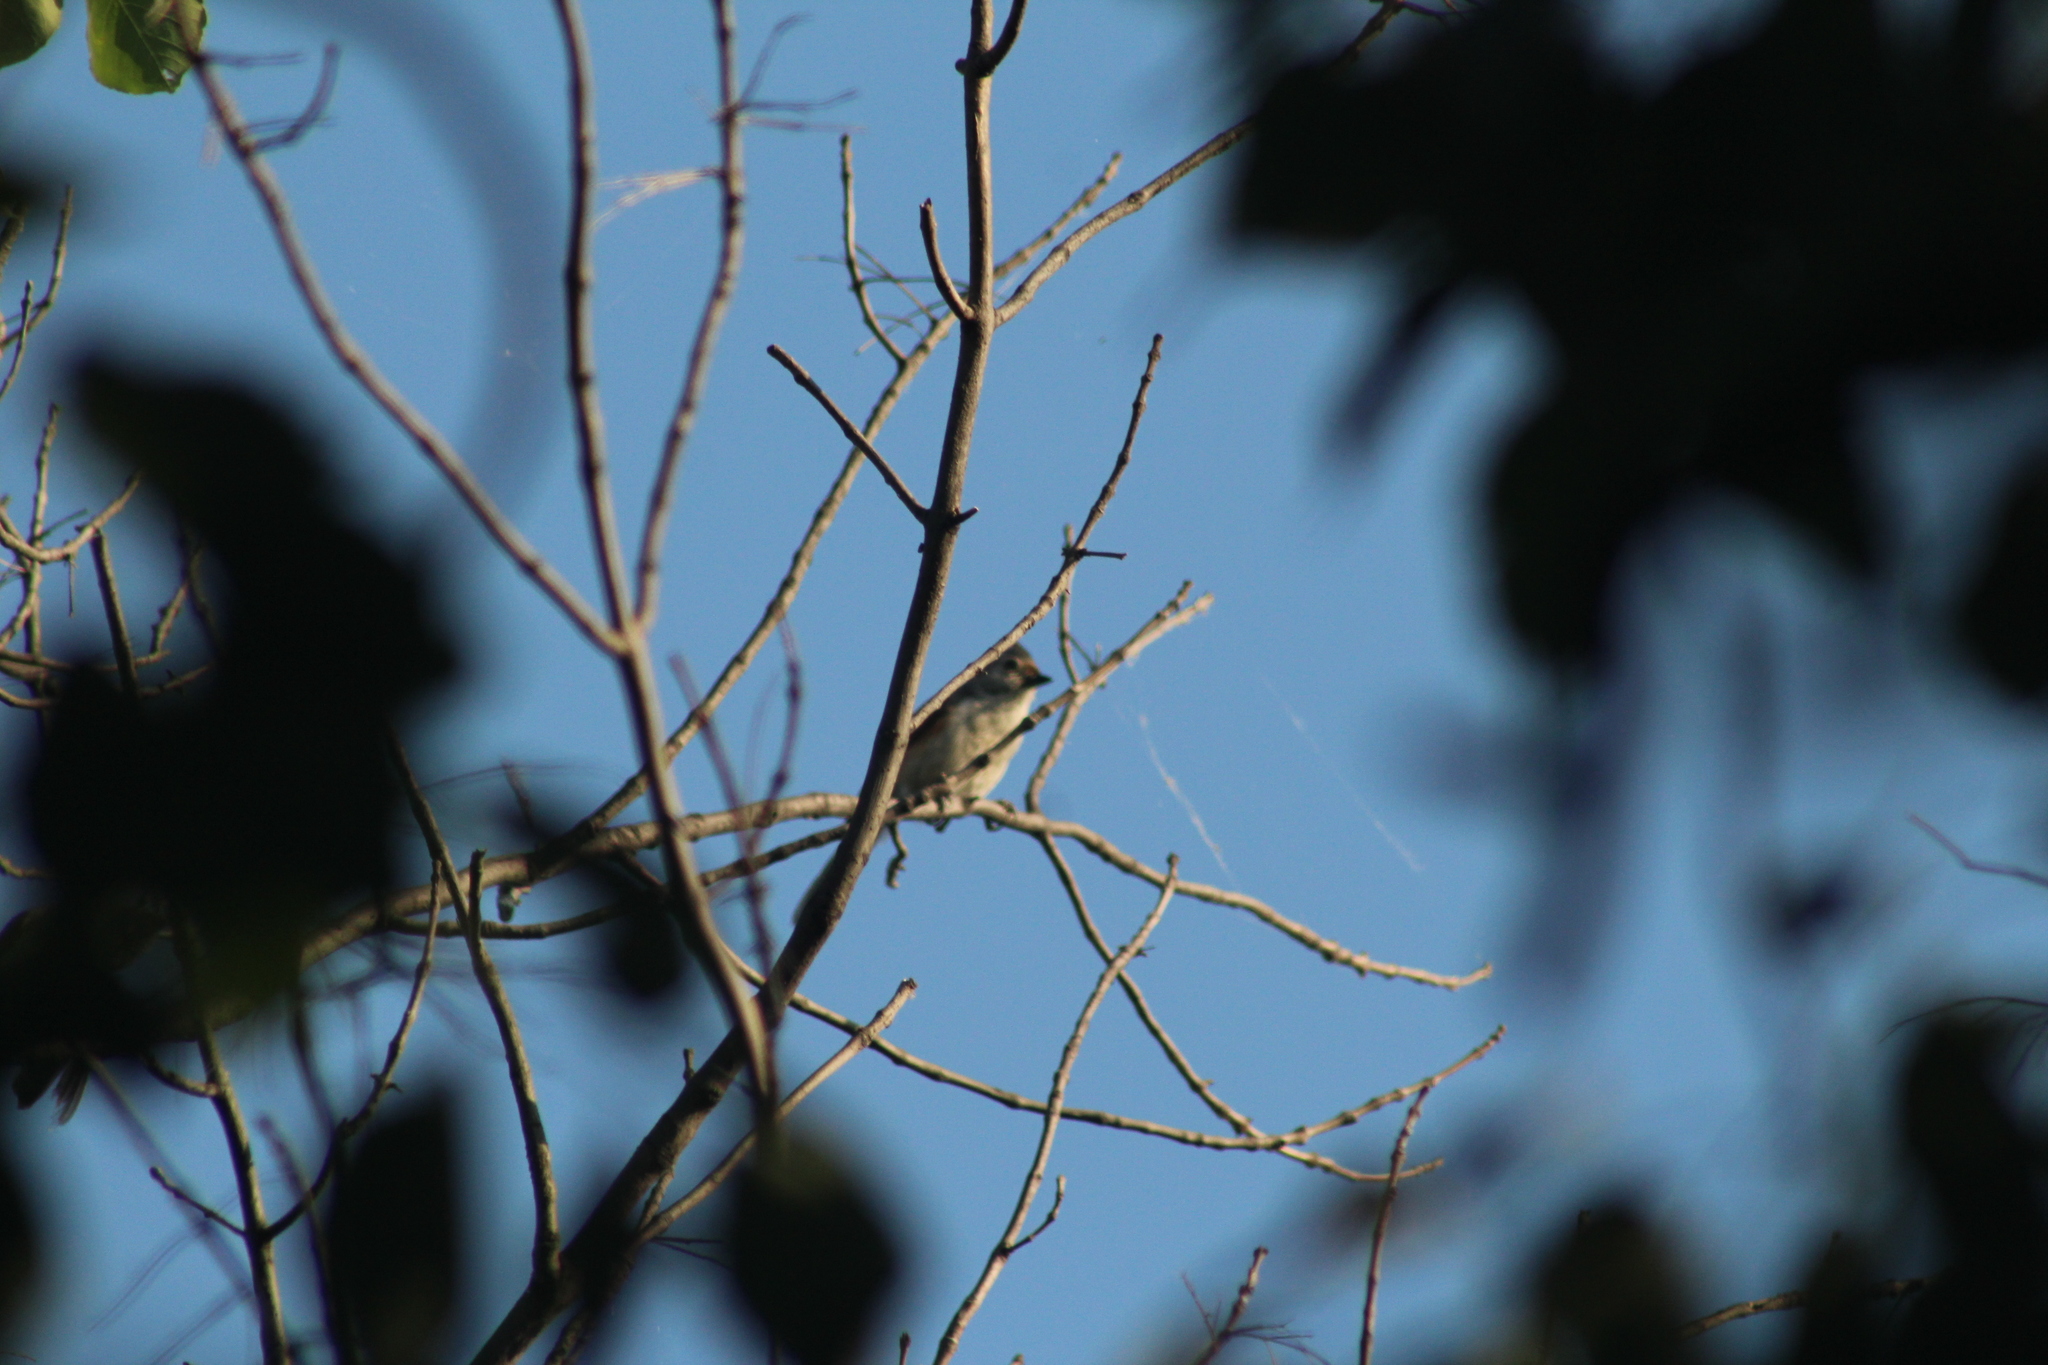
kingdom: Animalia
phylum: Chordata
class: Aves
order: Passeriformes
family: Paridae
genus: Baeolophus
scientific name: Baeolophus bicolor
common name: Tufted titmouse
